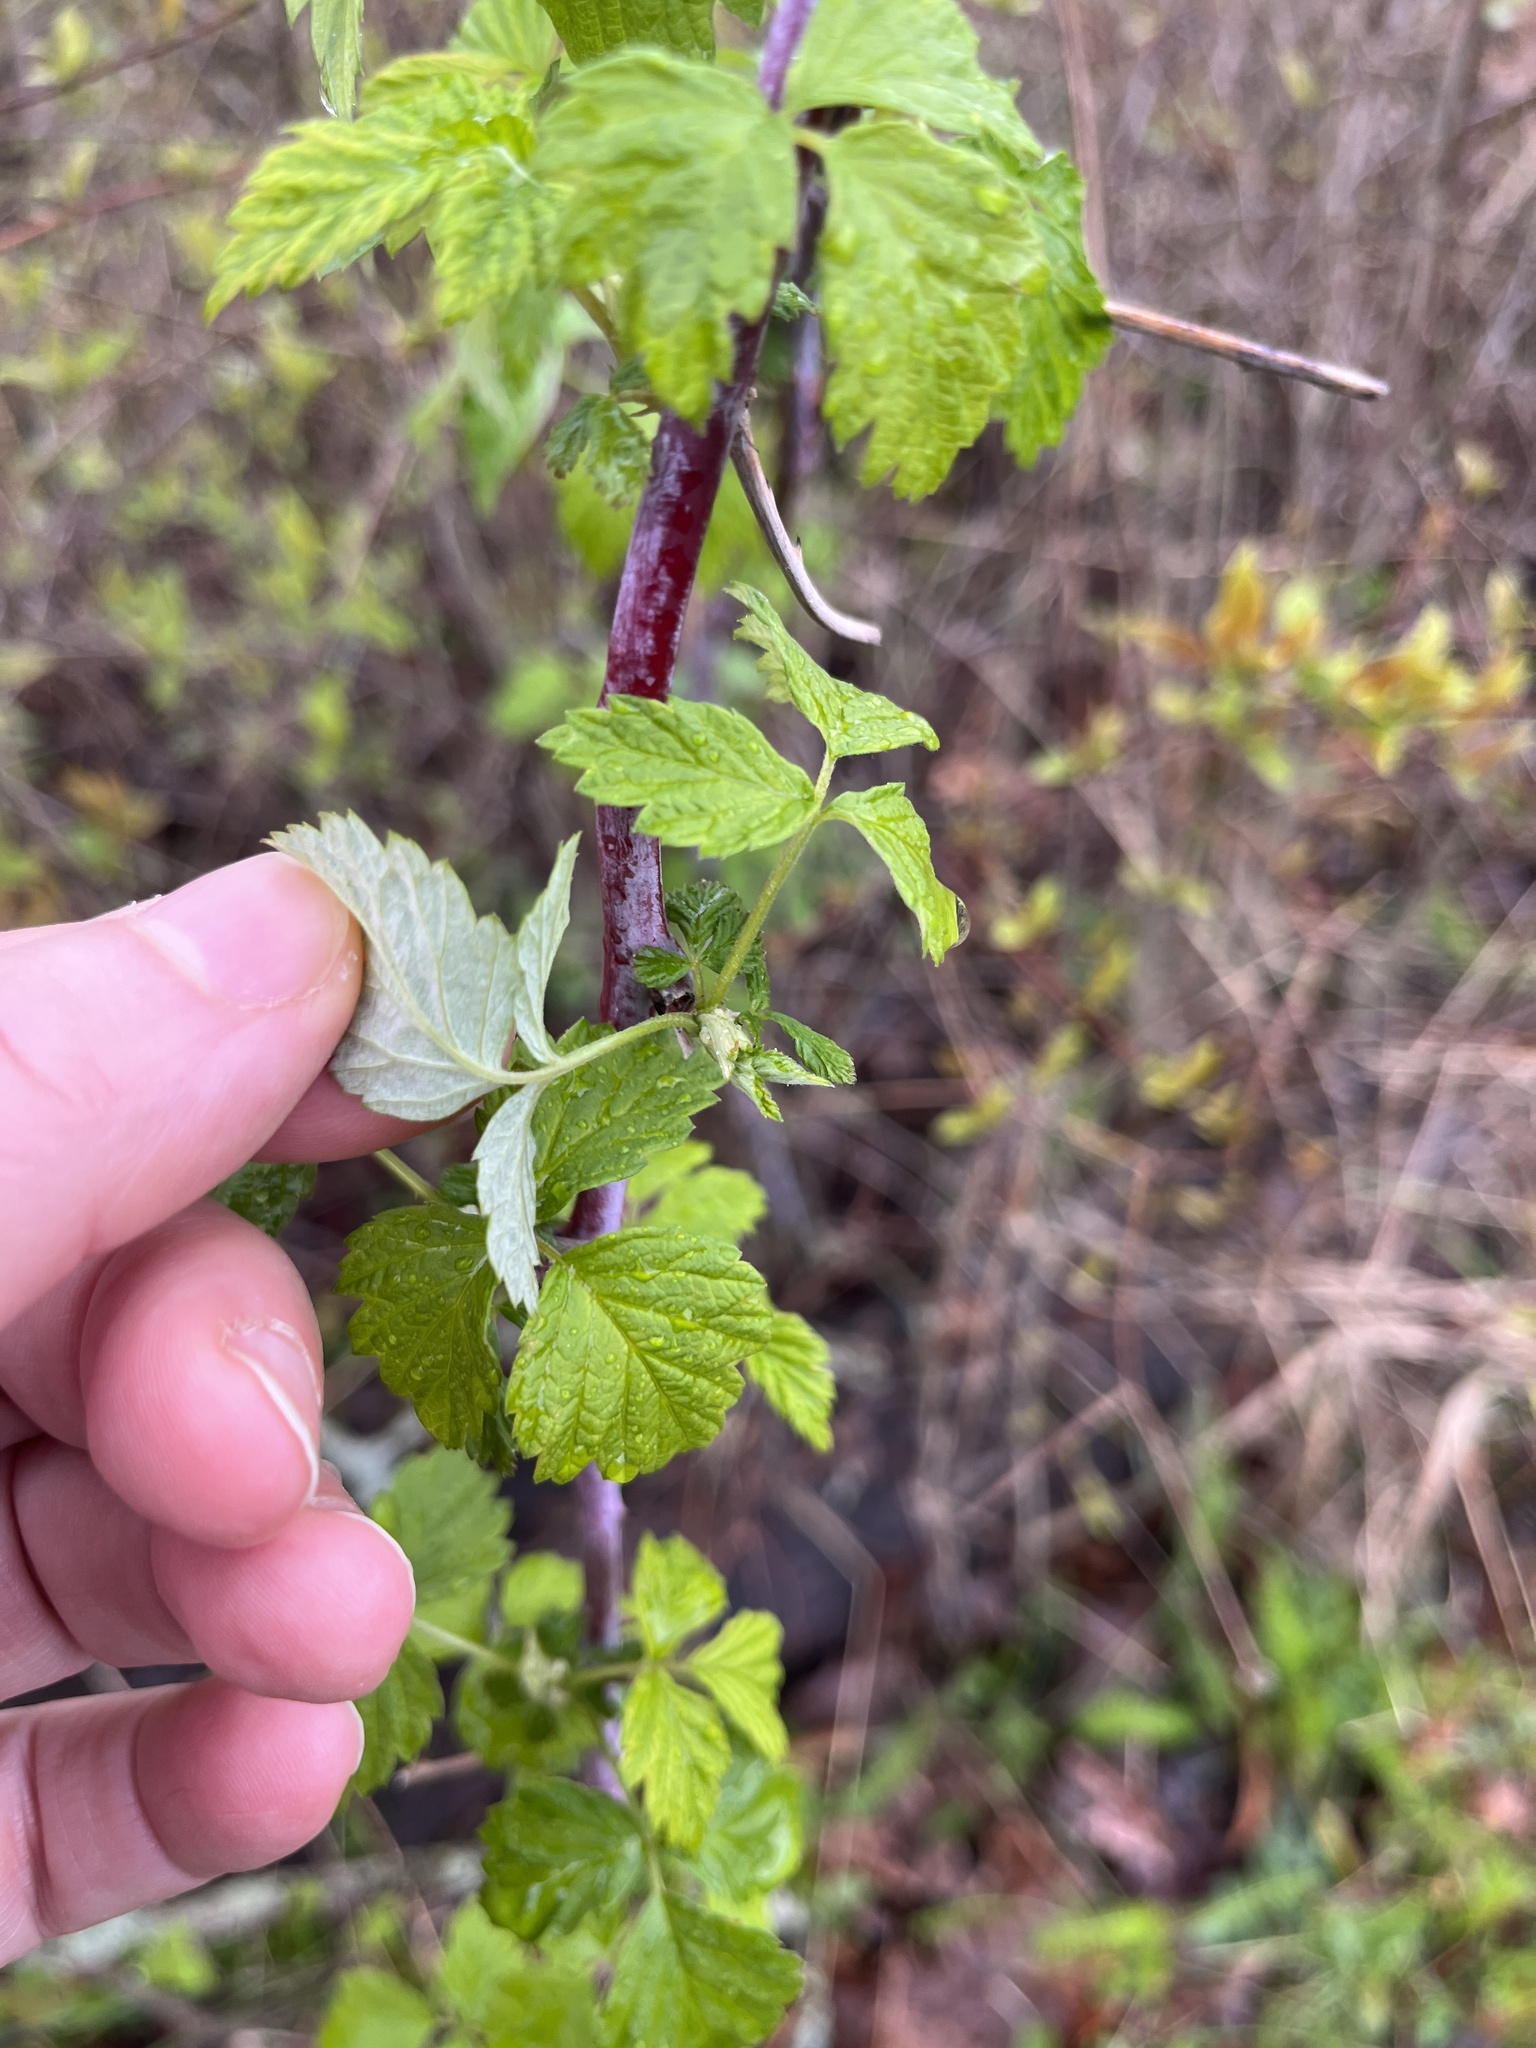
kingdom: Plantae
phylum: Tracheophyta
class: Magnoliopsida
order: Rosales
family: Rosaceae
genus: Rubus
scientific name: Rubus occidentalis
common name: Black raspberry
